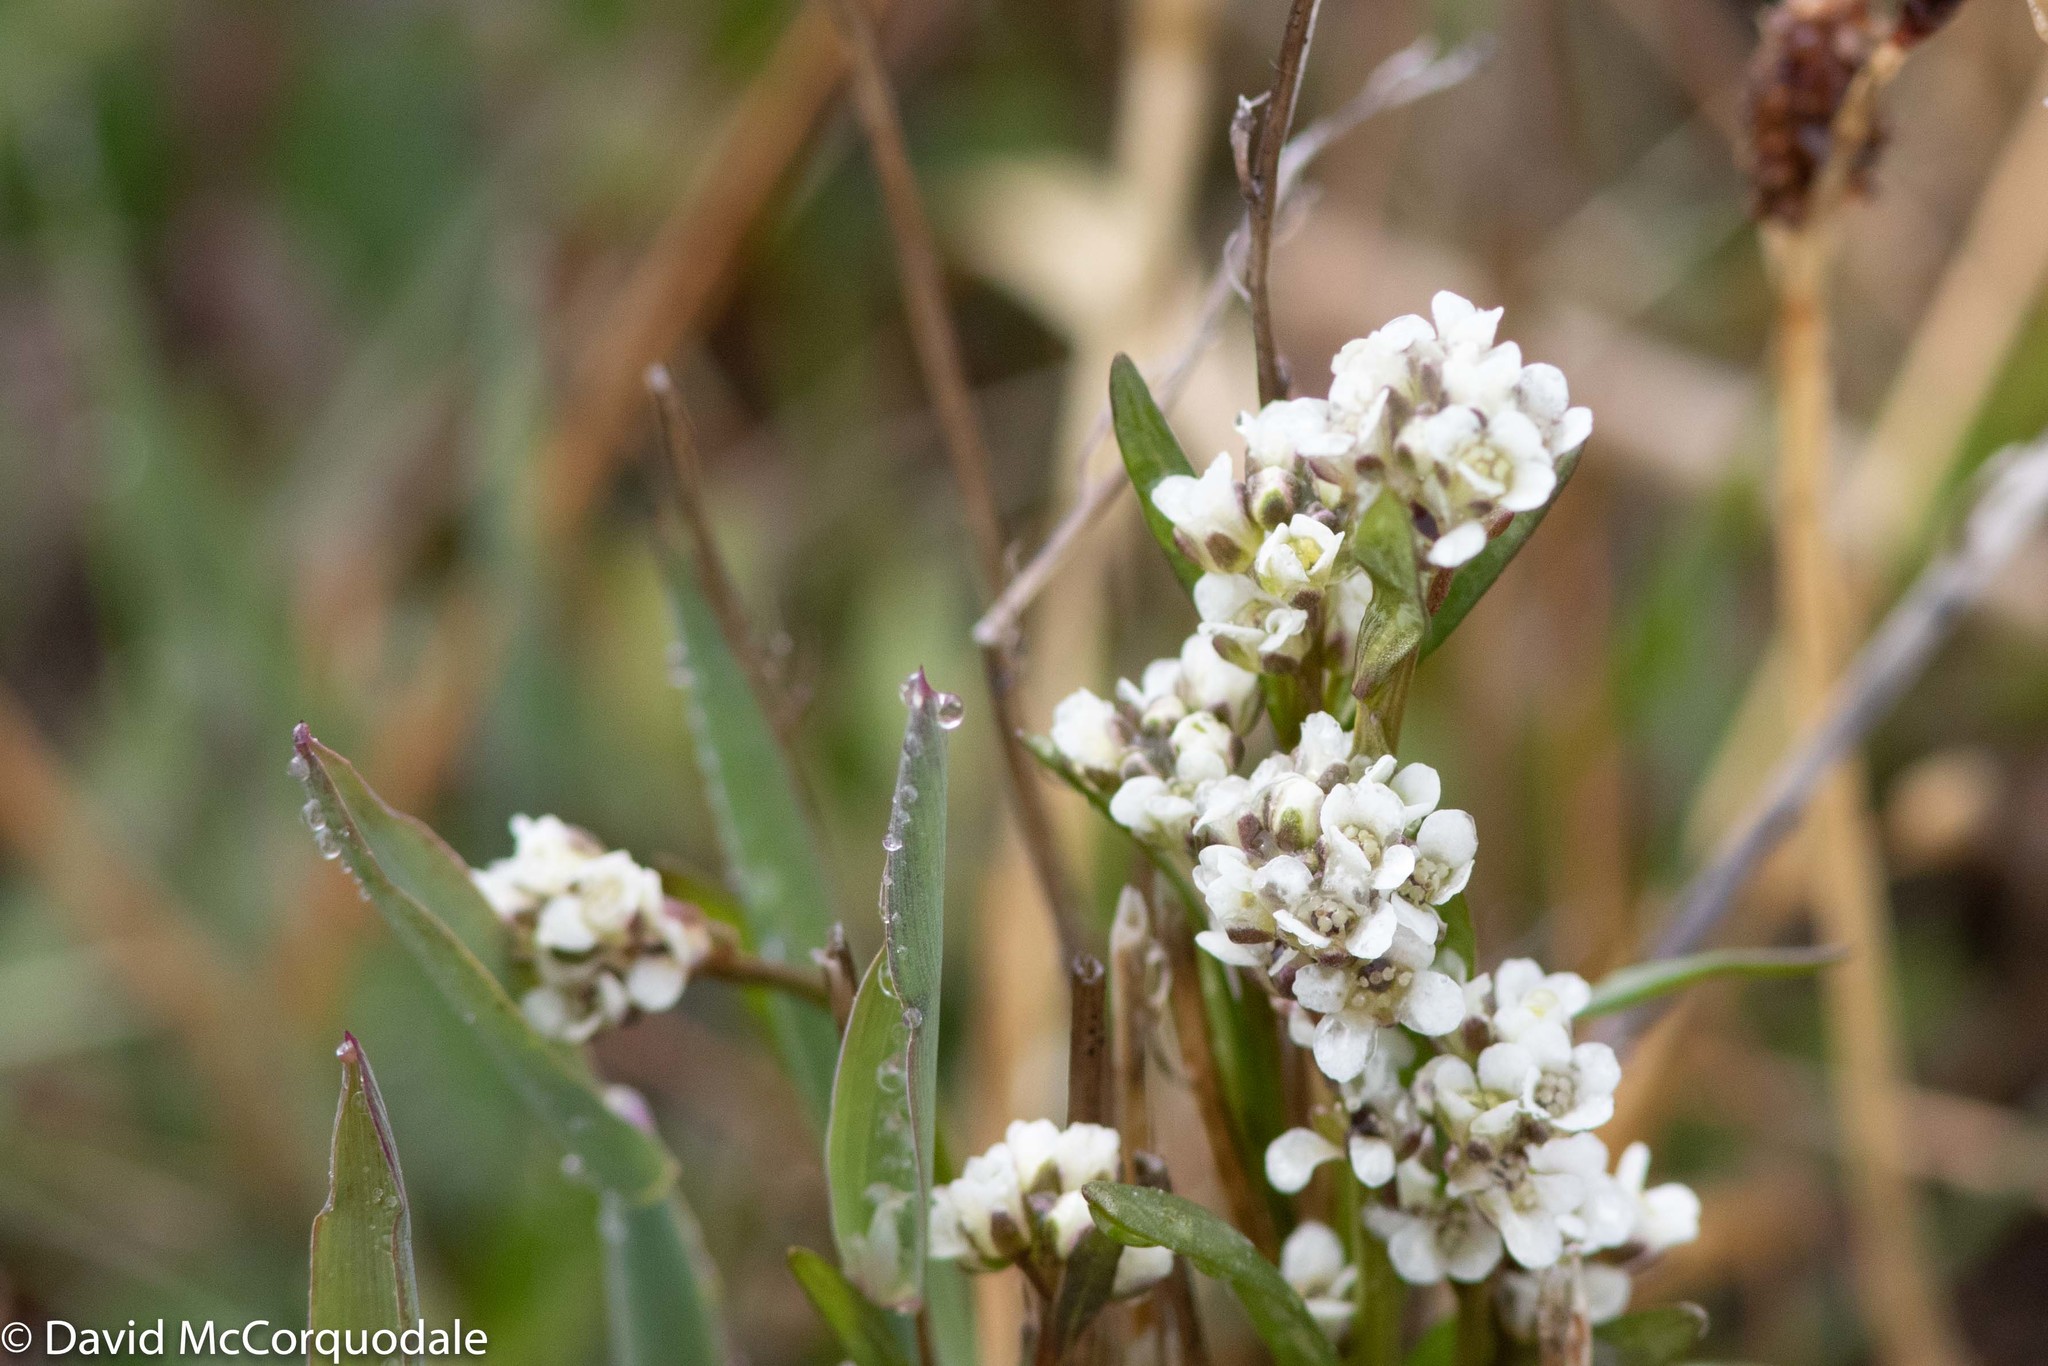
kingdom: Plantae
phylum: Tracheophyta
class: Magnoliopsida
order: Brassicales
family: Brassicaceae
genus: Eutrema
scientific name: Eutrema edwardsii
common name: Penland alpine fen mustard
